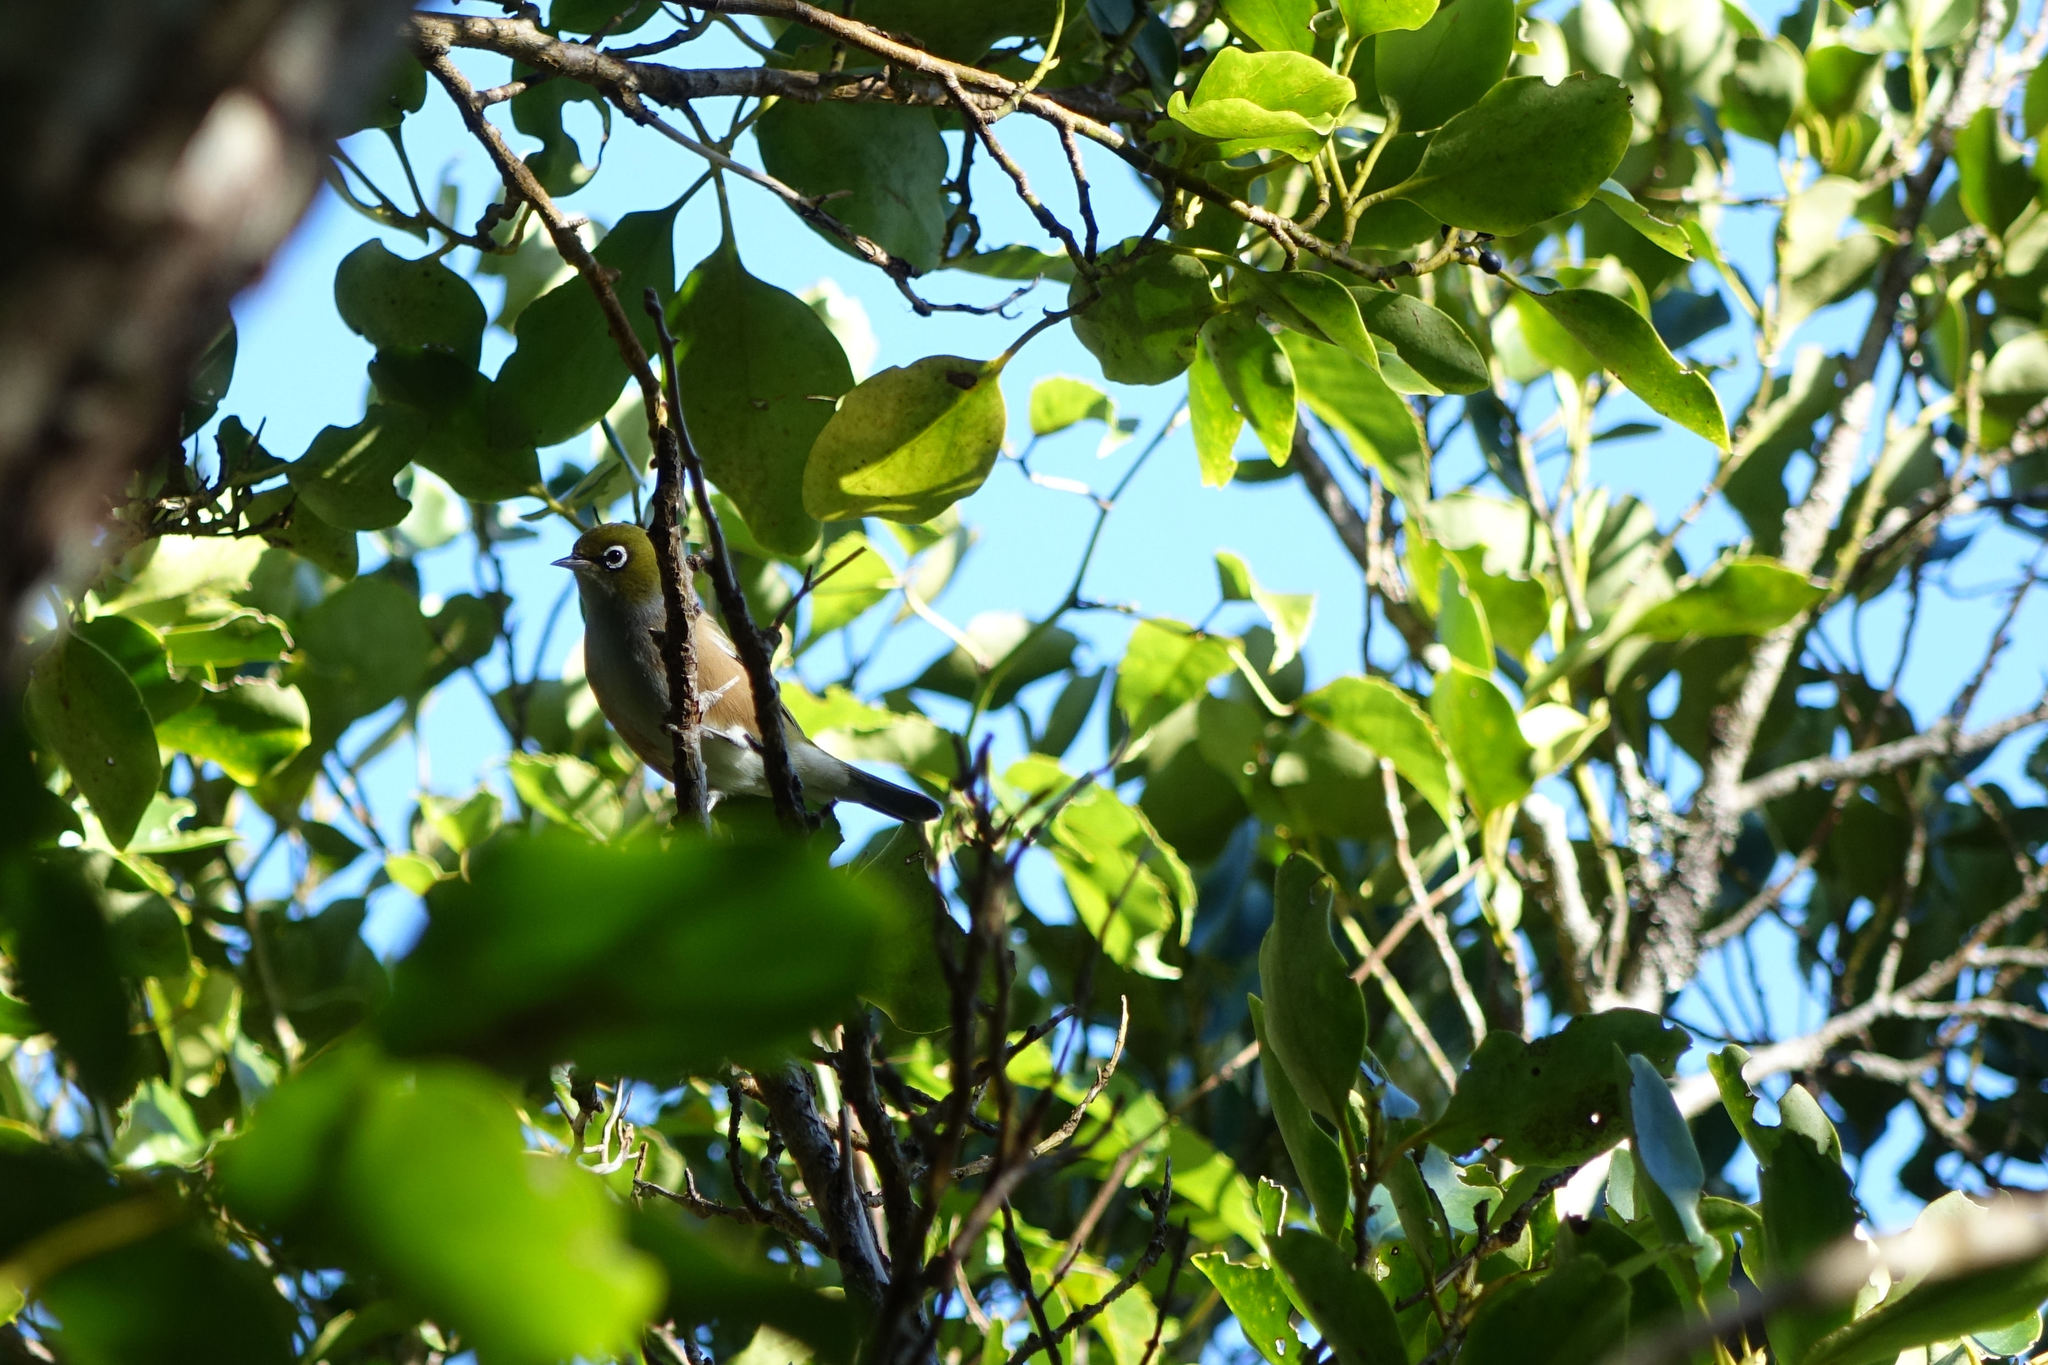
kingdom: Animalia
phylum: Chordata
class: Aves
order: Passeriformes
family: Zosteropidae
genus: Zosterops
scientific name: Zosterops lateralis
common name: Silvereye
